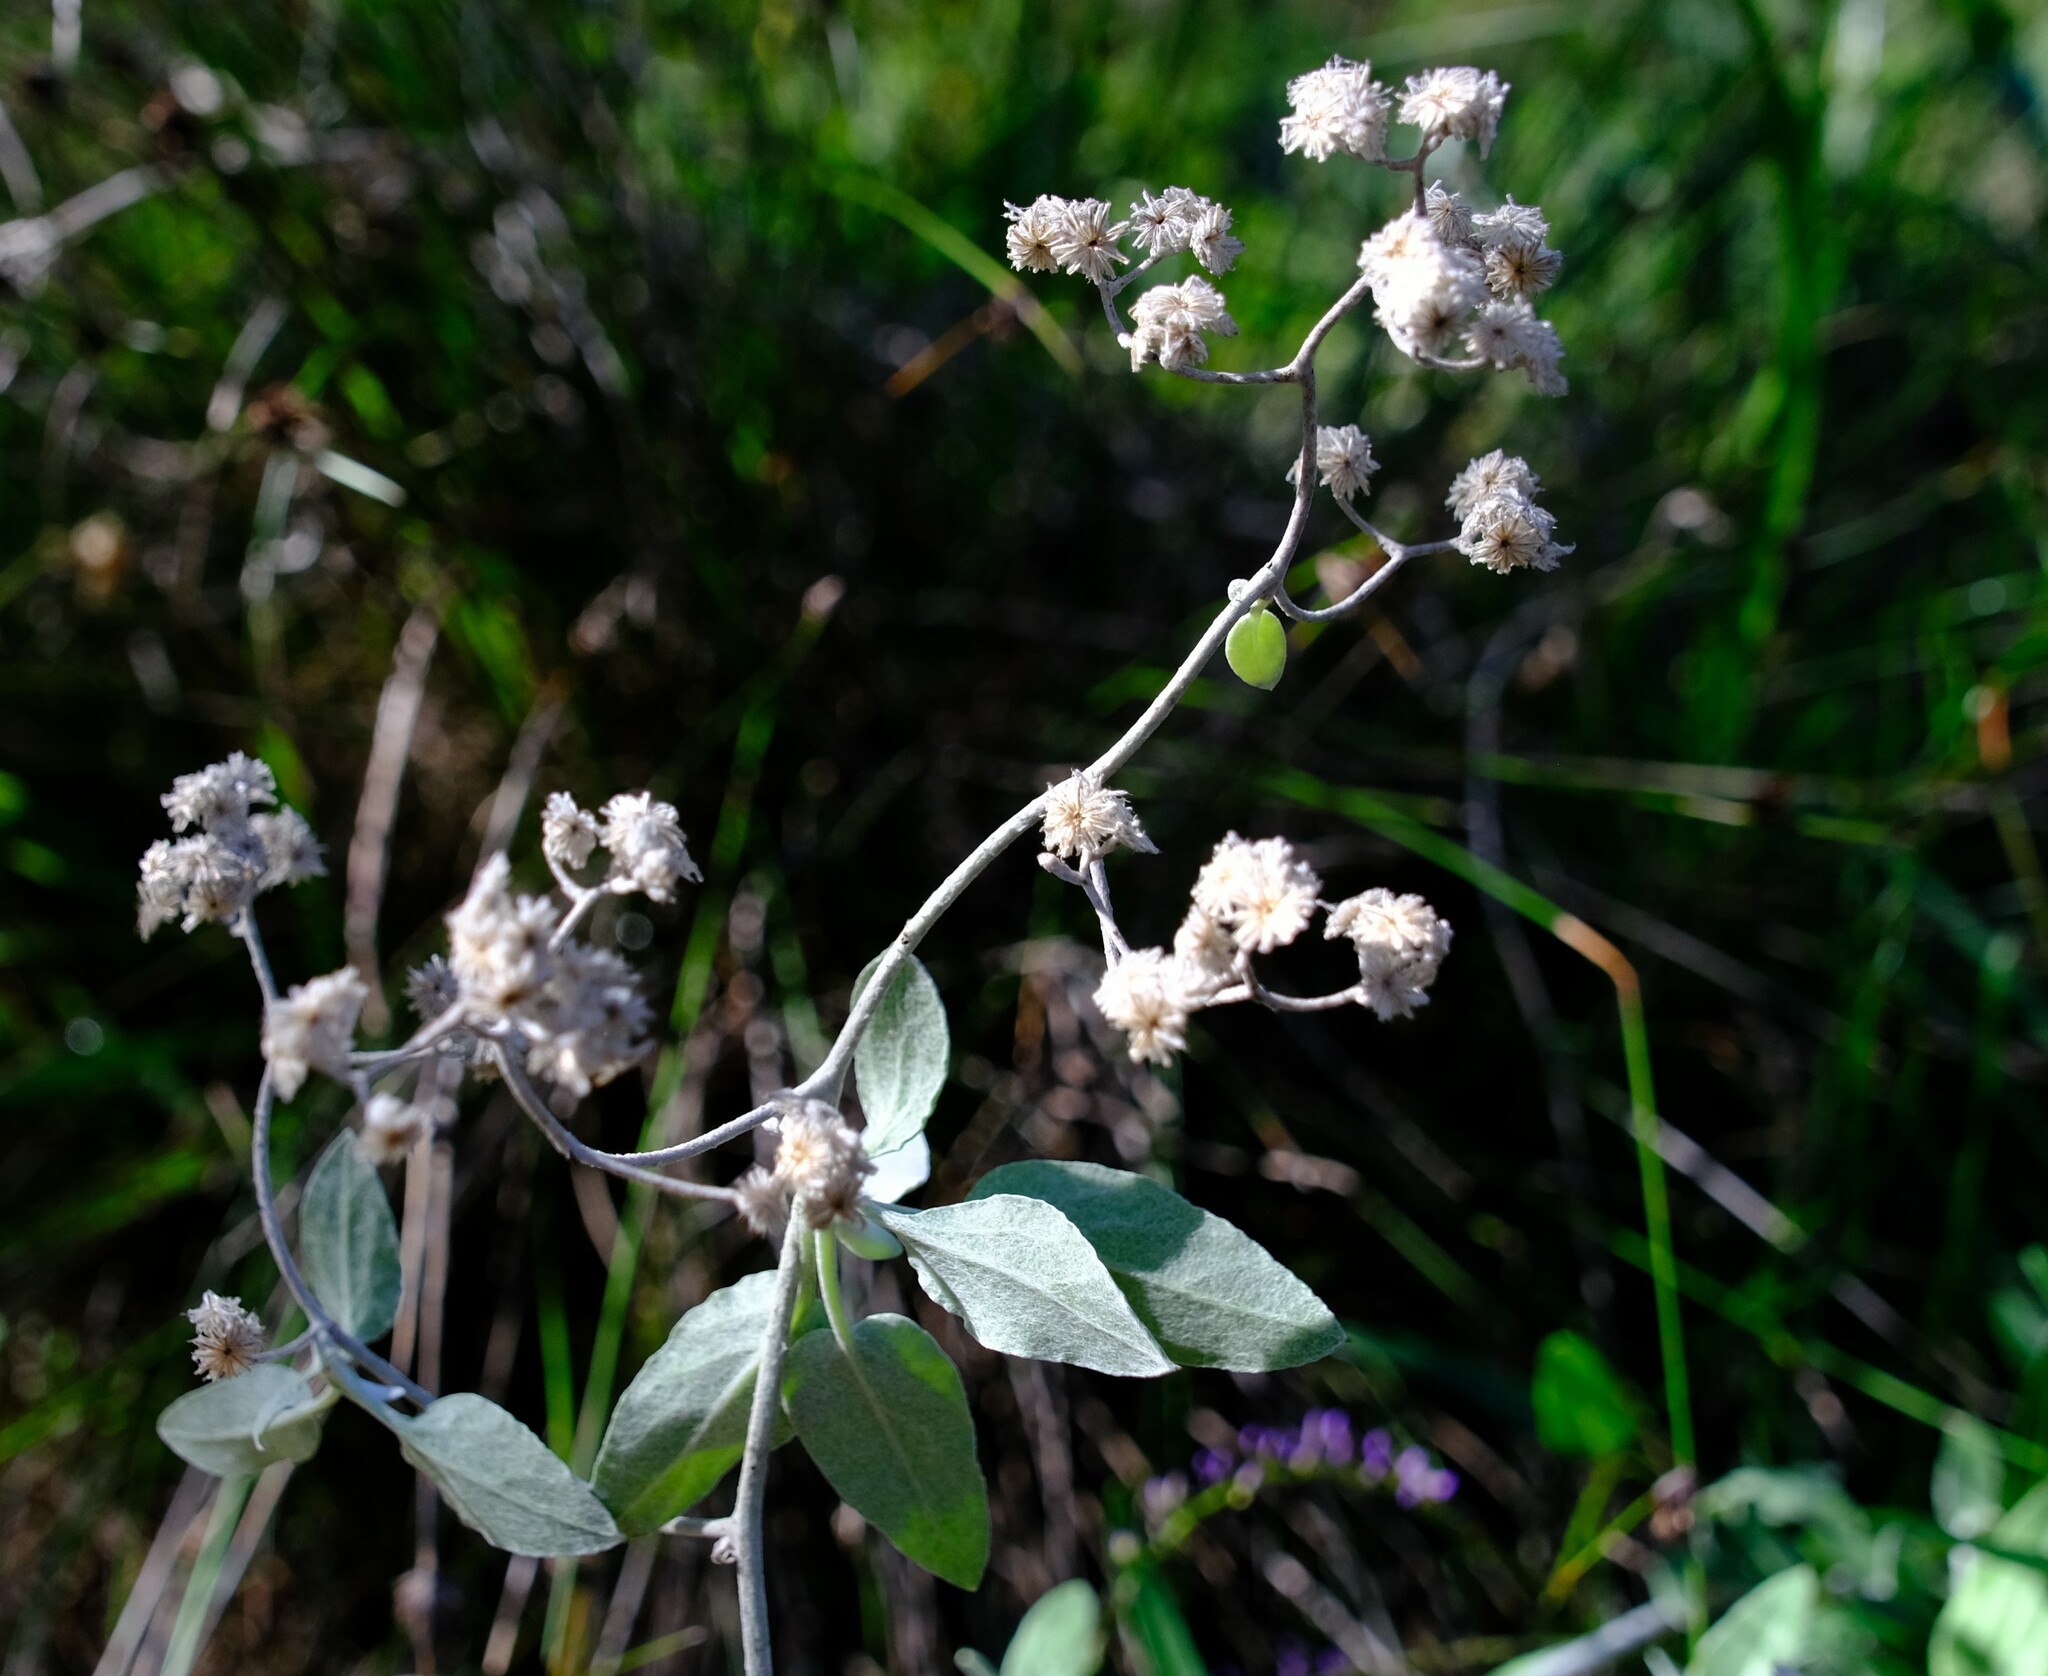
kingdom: Plantae
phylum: Tracheophyta
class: Magnoliopsida
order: Asterales
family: Asteraceae
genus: Pithocarpa
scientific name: Pithocarpa cordata
